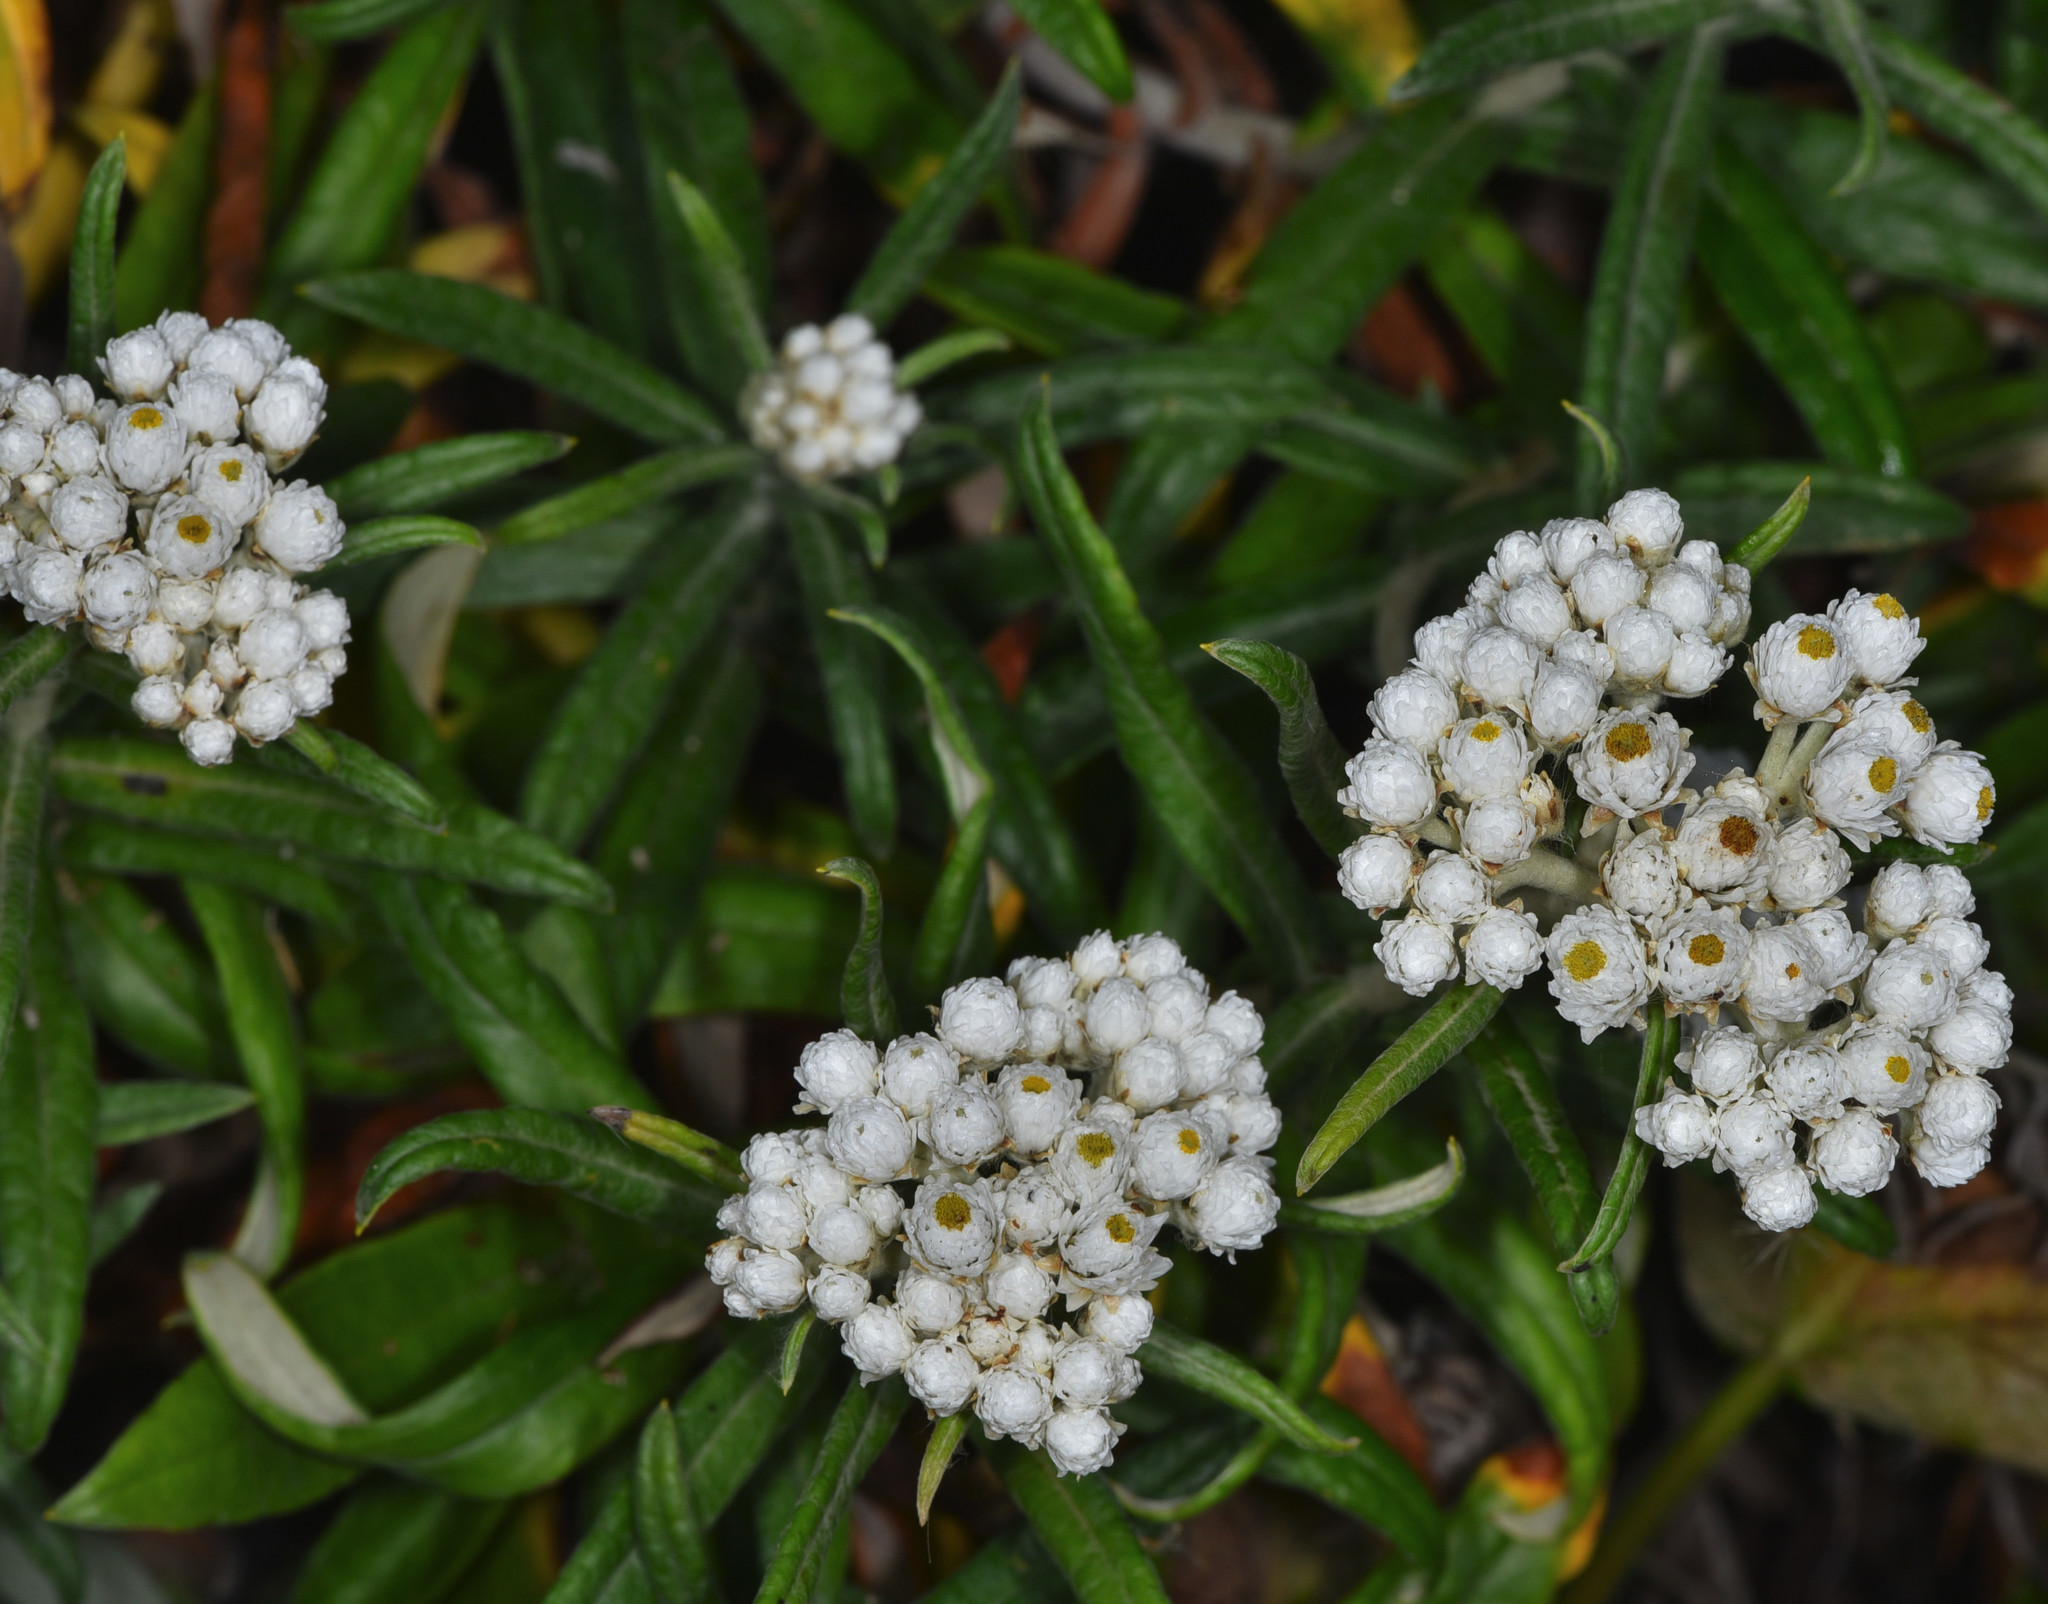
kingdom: Plantae
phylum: Tracheophyta
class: Magnoliopsida
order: Asterales
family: Asteraceae
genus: Anaphalis
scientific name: Anaphalis margaritacea
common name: Pearly everlasting
